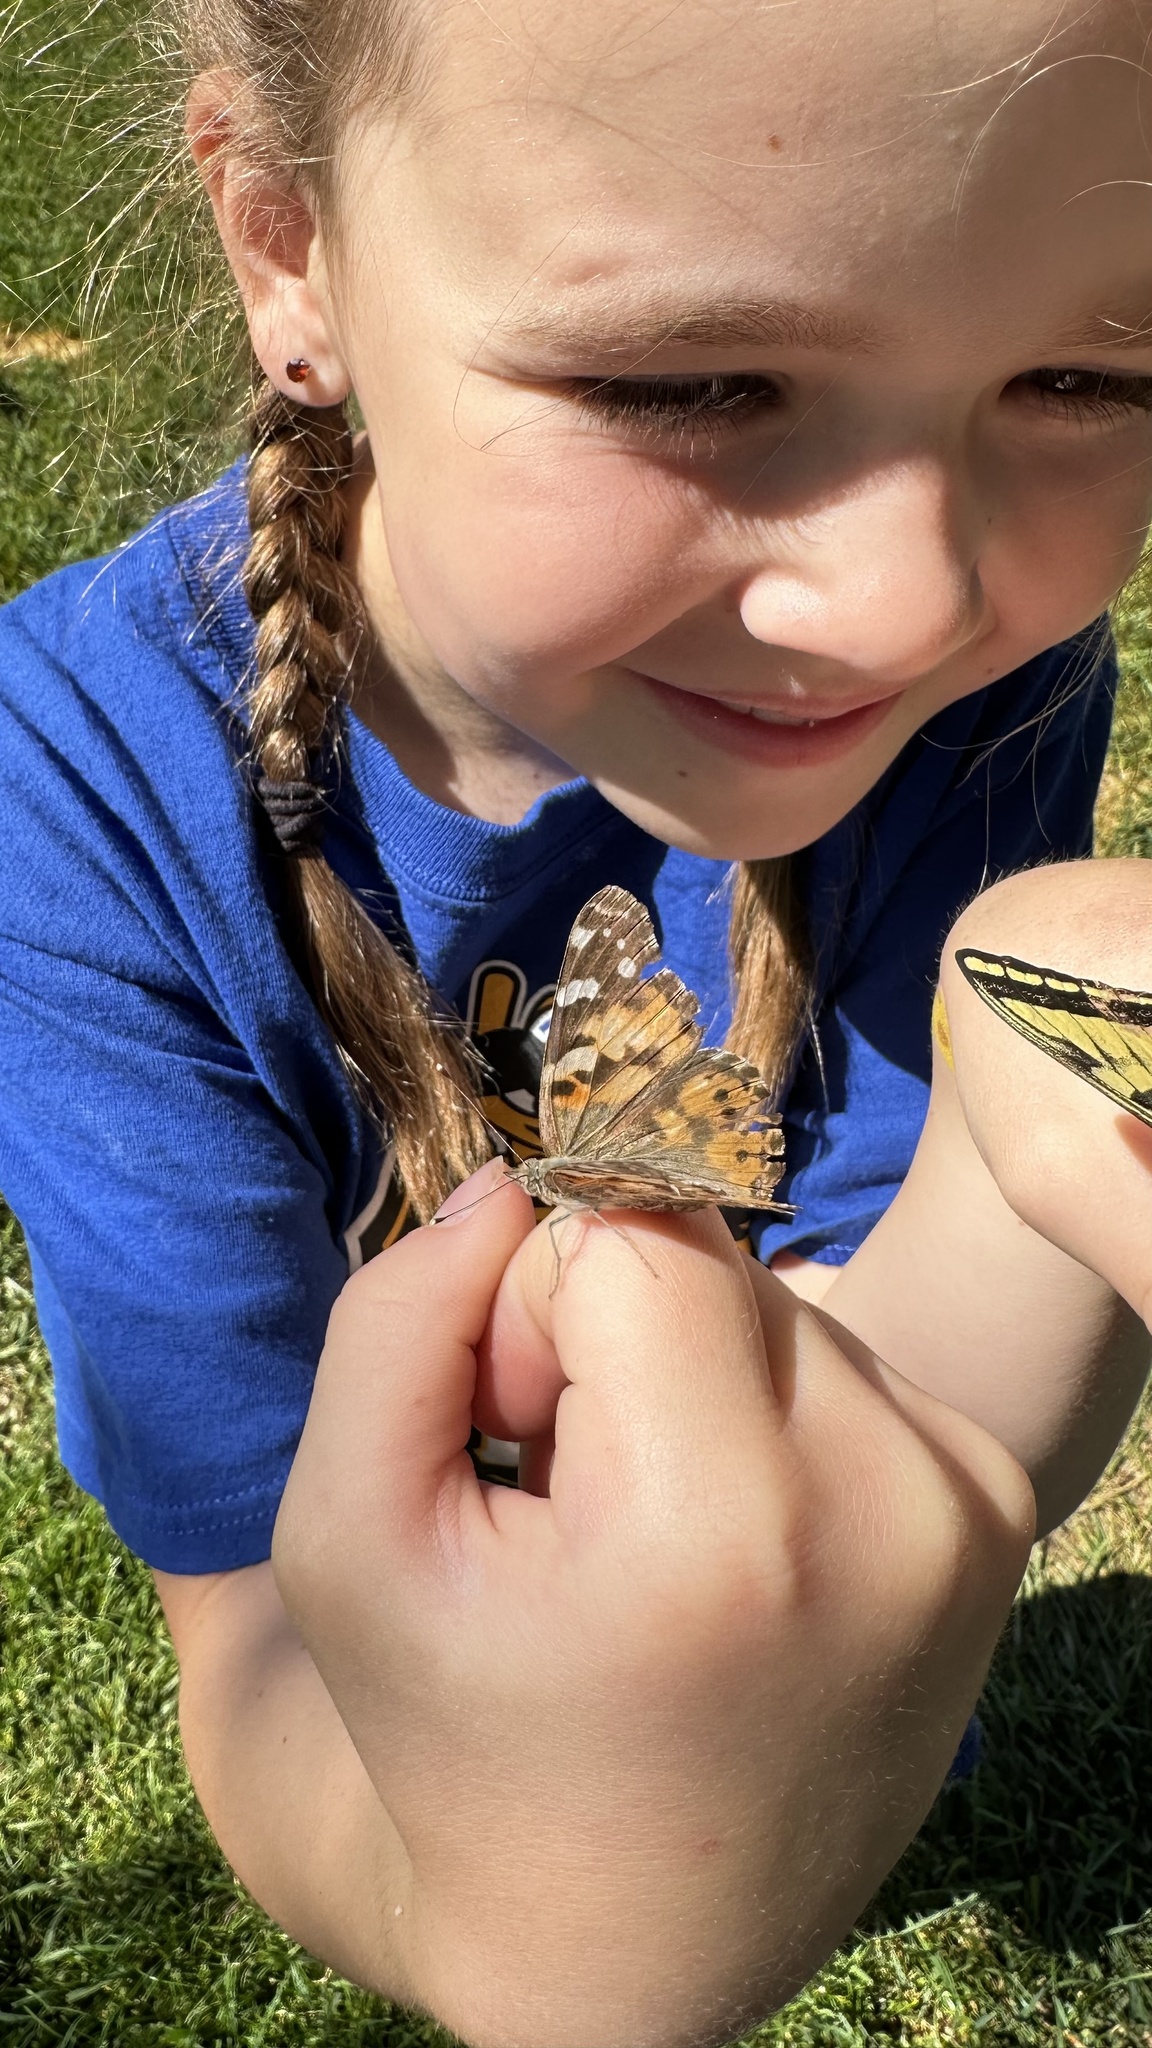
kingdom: Animalia
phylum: Arthropoda
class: Insecta
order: Lepidoptera
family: Nymphalidae
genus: Vanessa
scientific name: Vanessa cardui
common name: Painted lady
